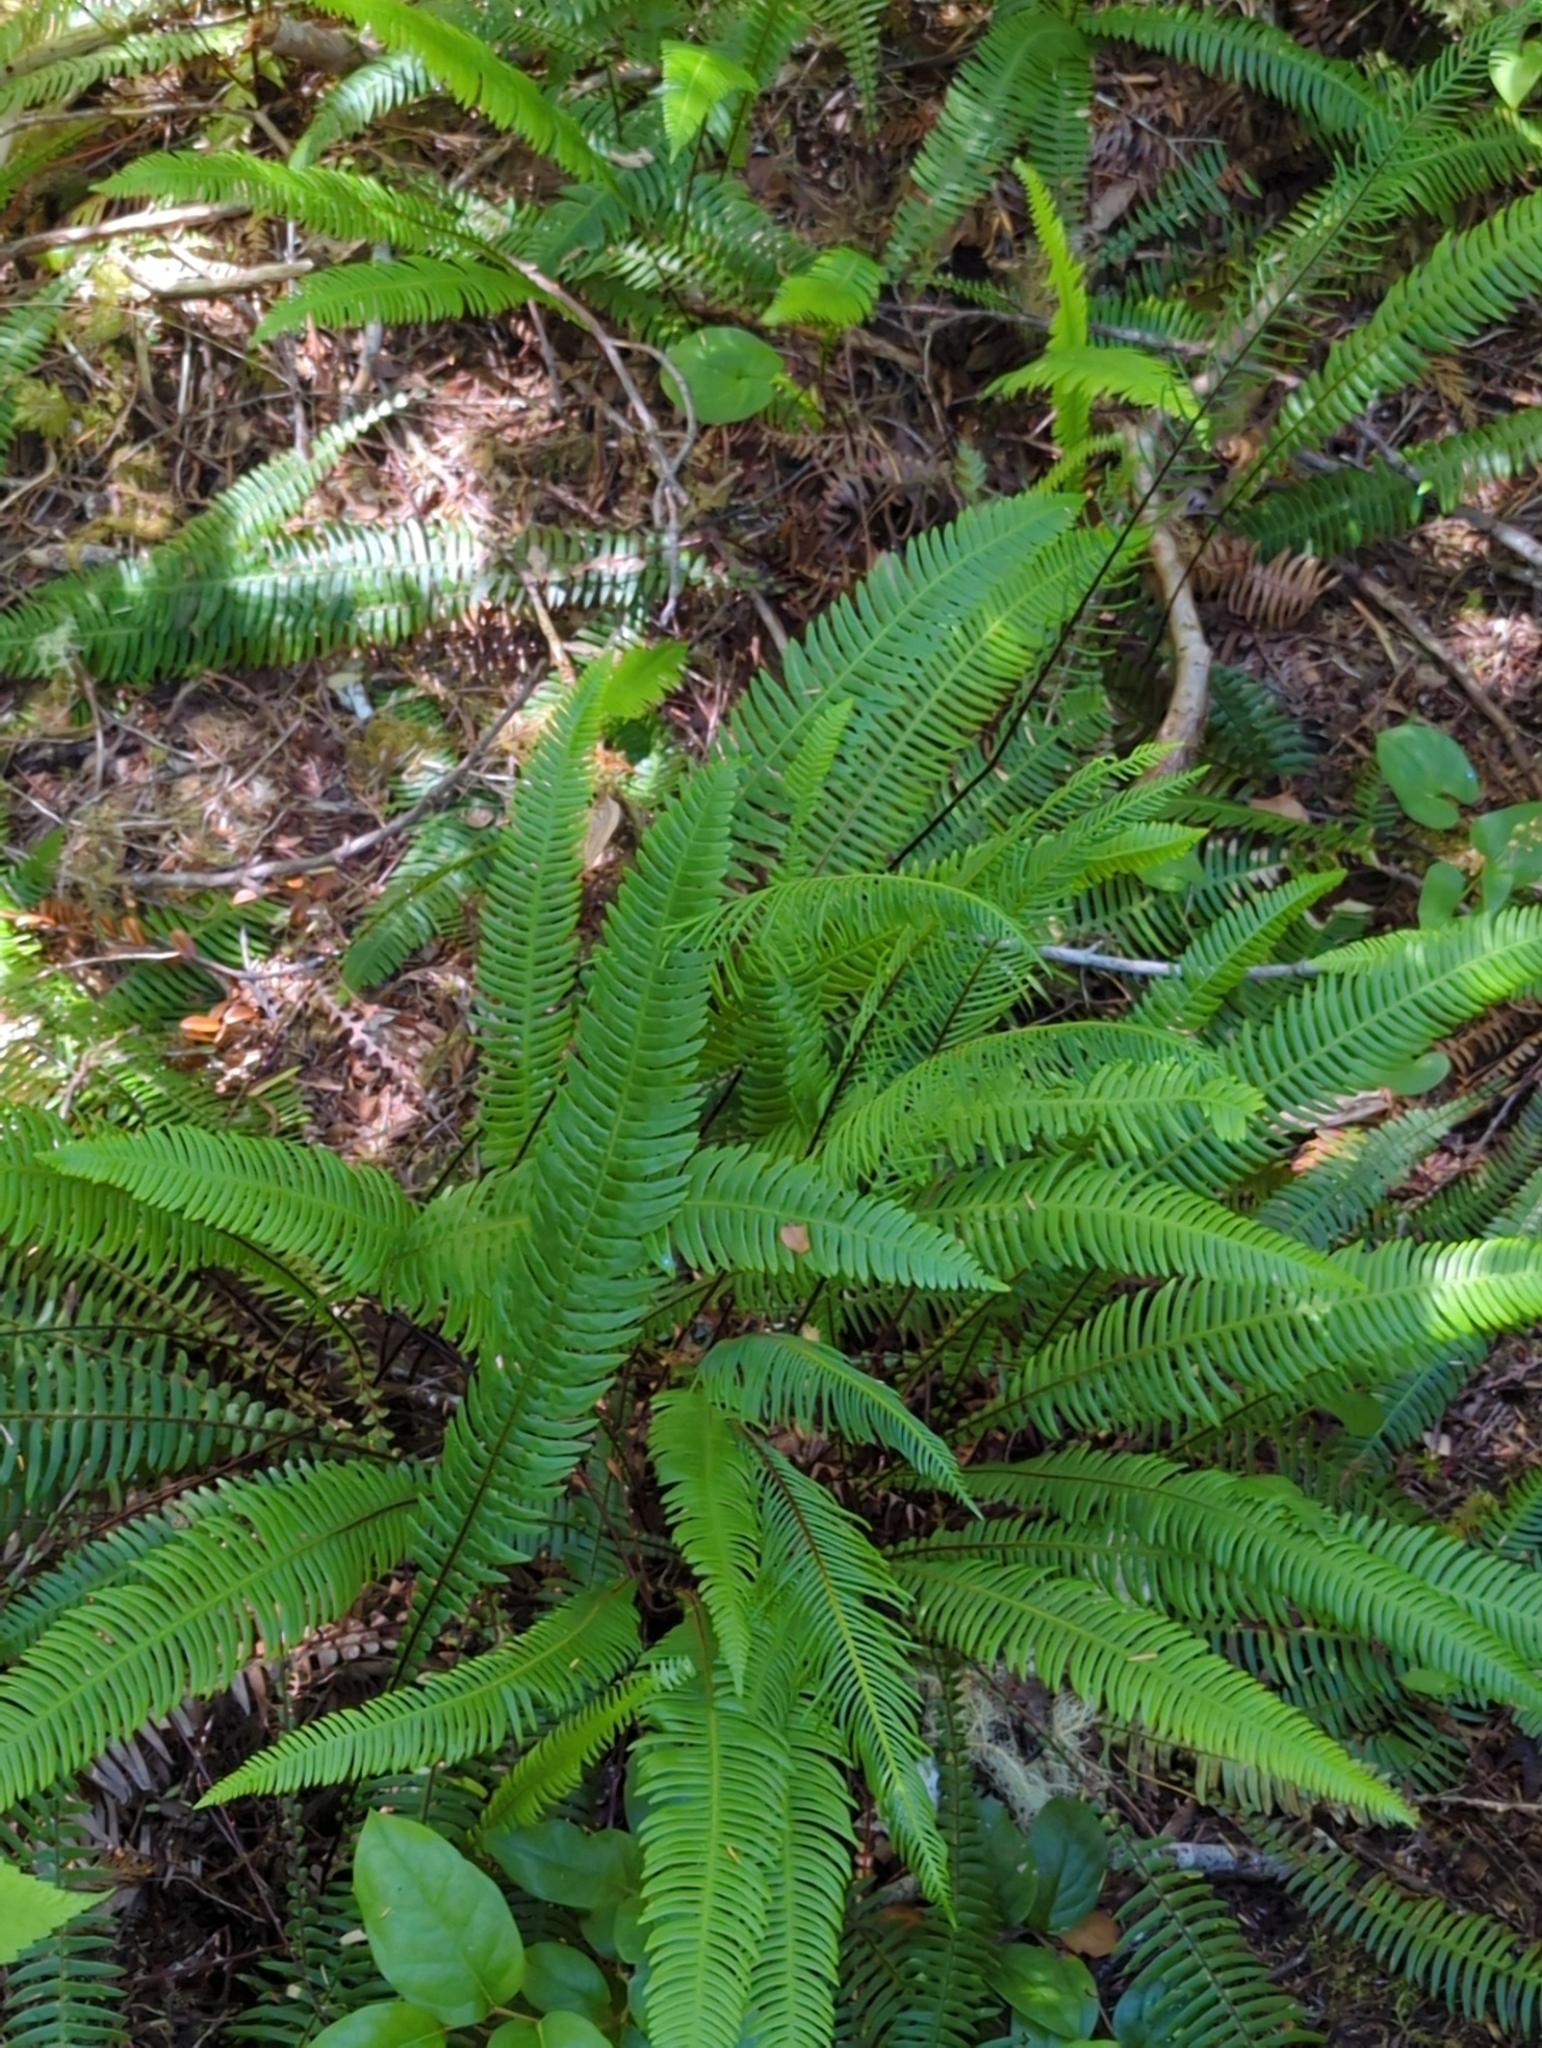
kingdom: Plantae
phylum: Tracheophyta
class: Polypodiopsida
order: Polypodiales
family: Blechnaceae
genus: Struthiopteris
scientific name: Struthiopteris spicant
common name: Deer fern
